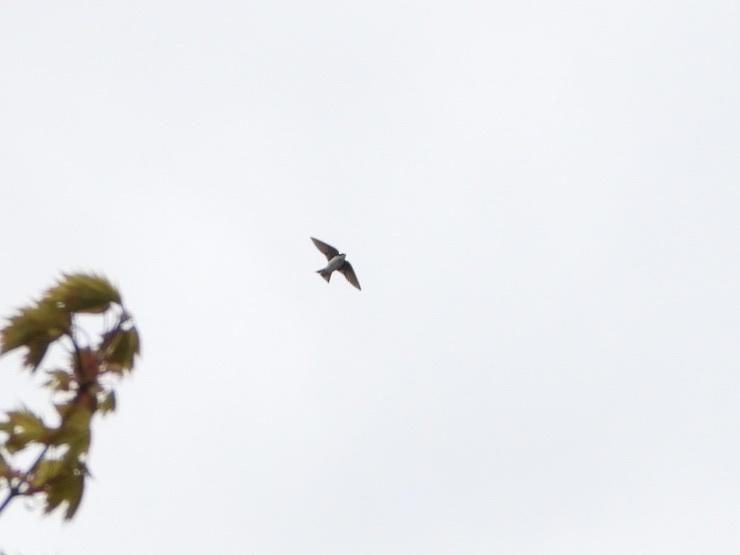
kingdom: Animalia
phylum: Chordata
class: Aves
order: Passeriformes
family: Hirundinidae
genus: Tachycineta
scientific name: Tachycineta bicolor
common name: Tree swallow
